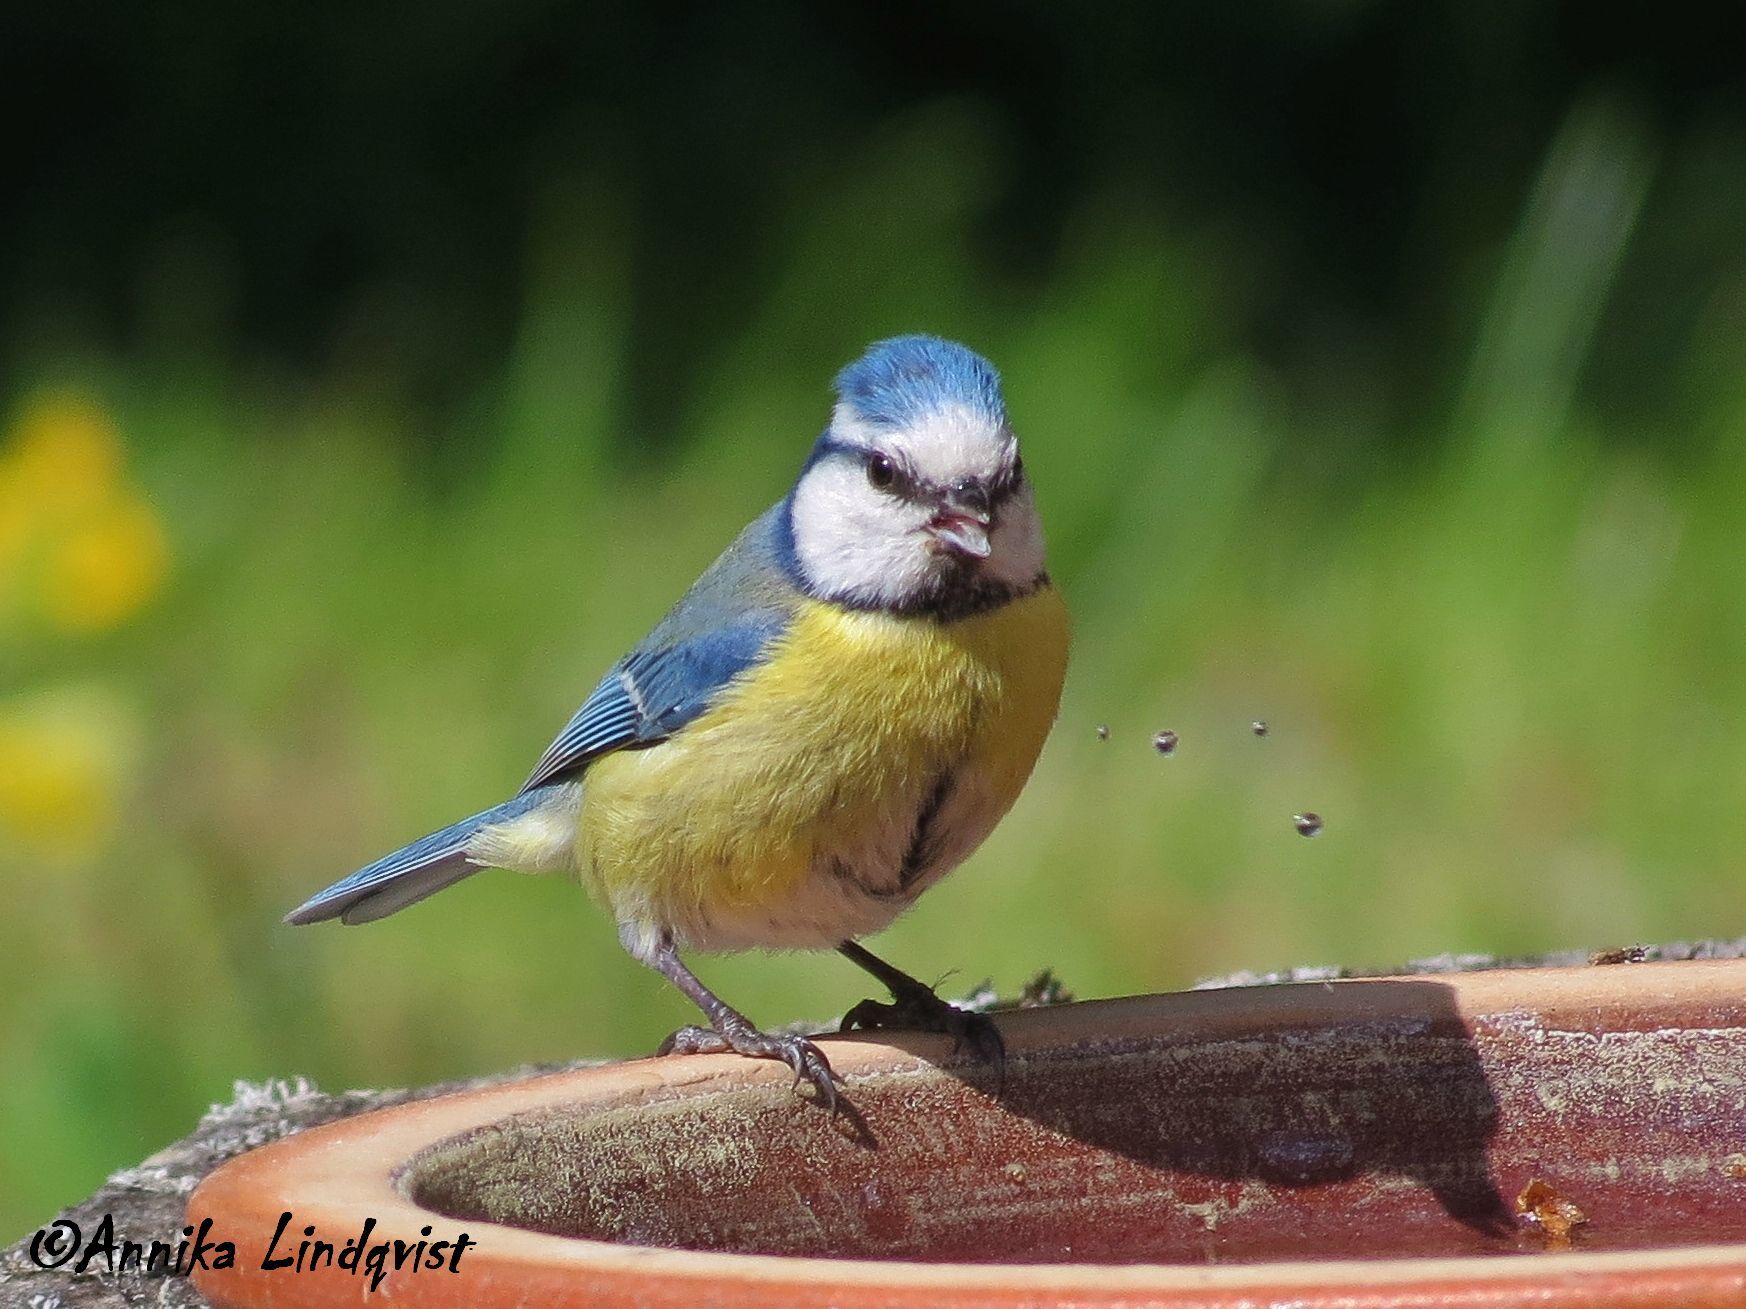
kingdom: Animalia
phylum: Chordata
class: Aves
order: Passeriformes
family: Paridae
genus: Cyanistes
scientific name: Cyanistes caeruleus
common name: Eurasian blue tit
